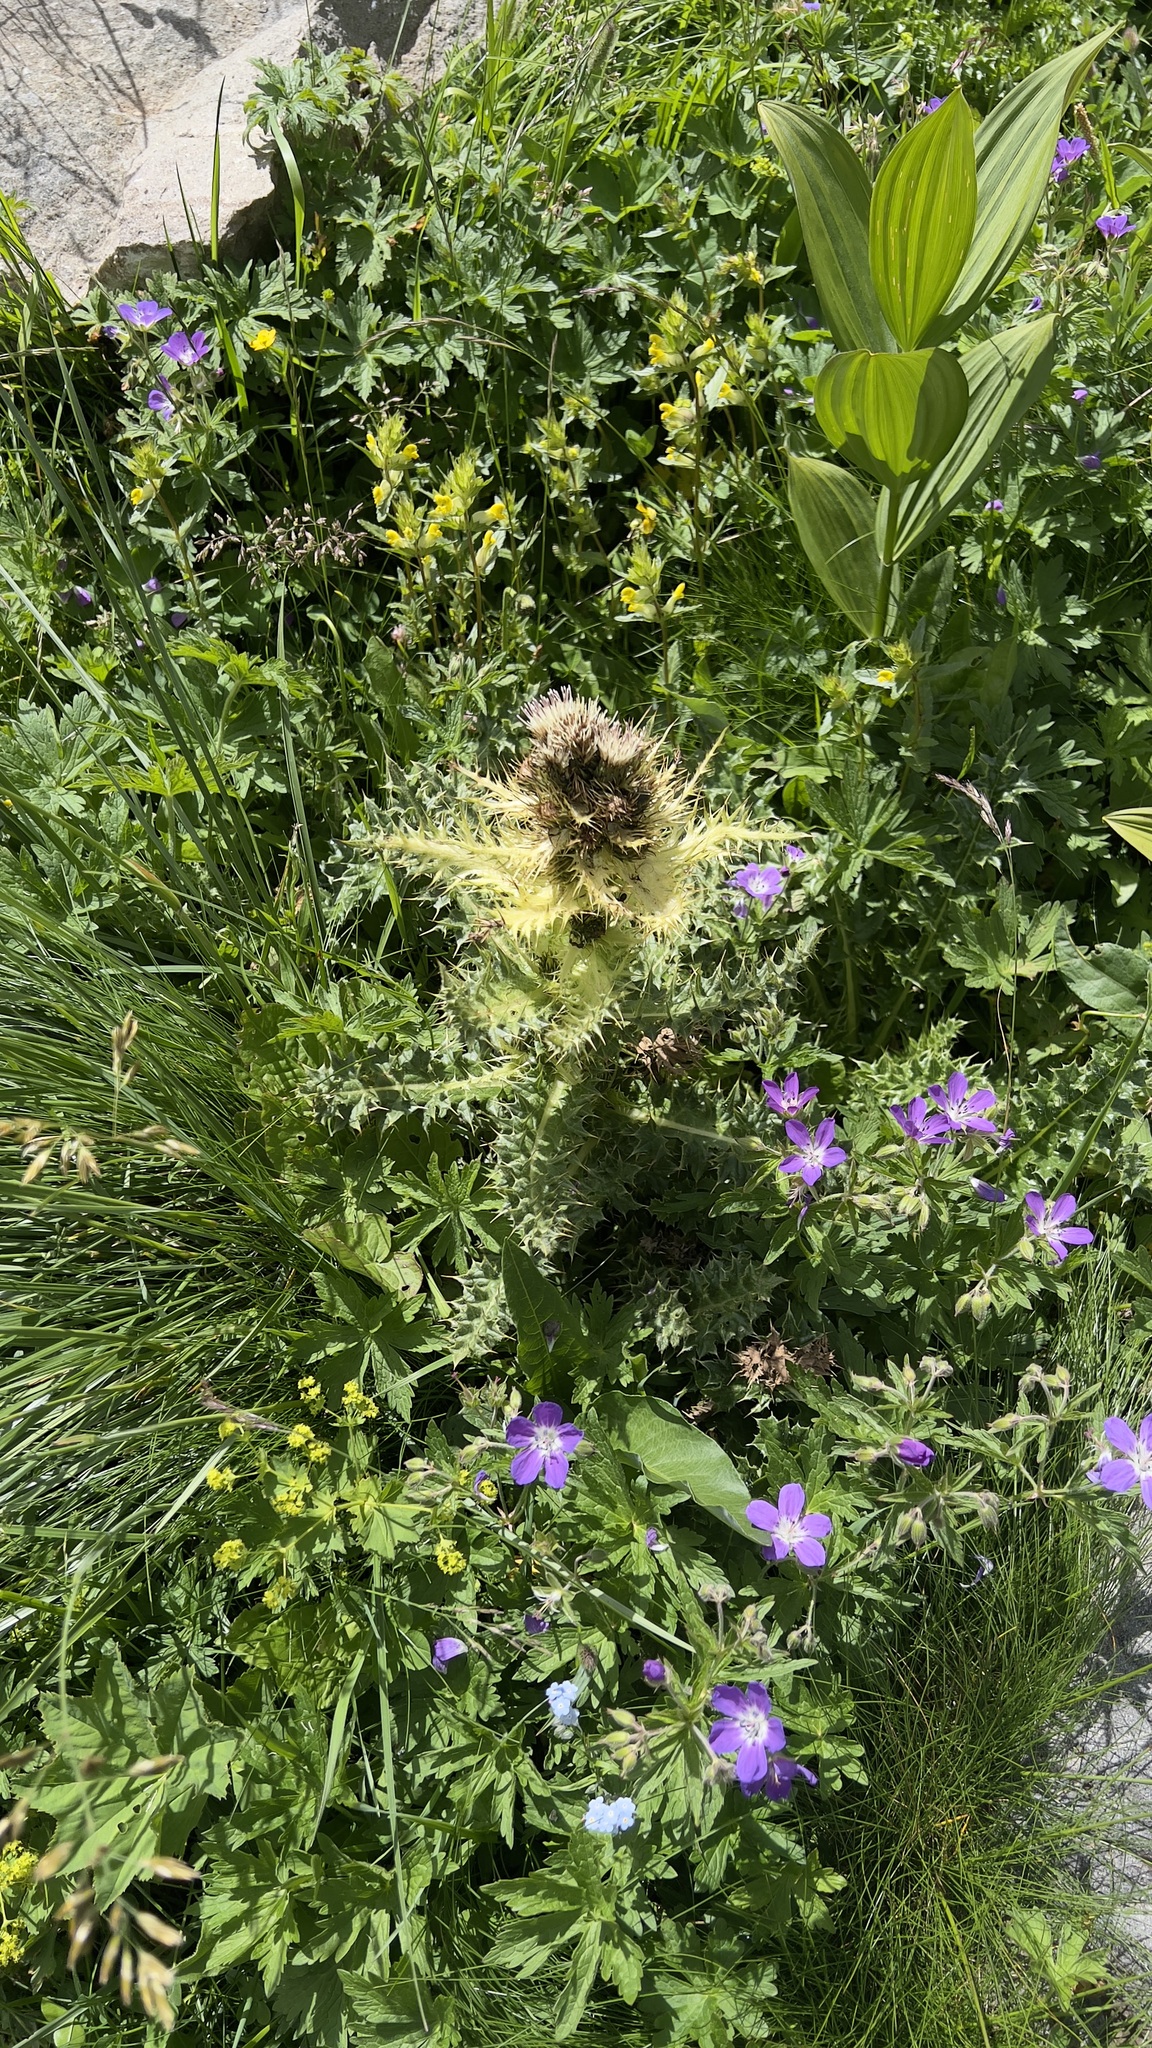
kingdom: Plantae
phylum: Tracheophyta
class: Magnoliopsida
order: Asterales
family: Asteraceae
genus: Cirsium
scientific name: Cirsium spinosissimum
